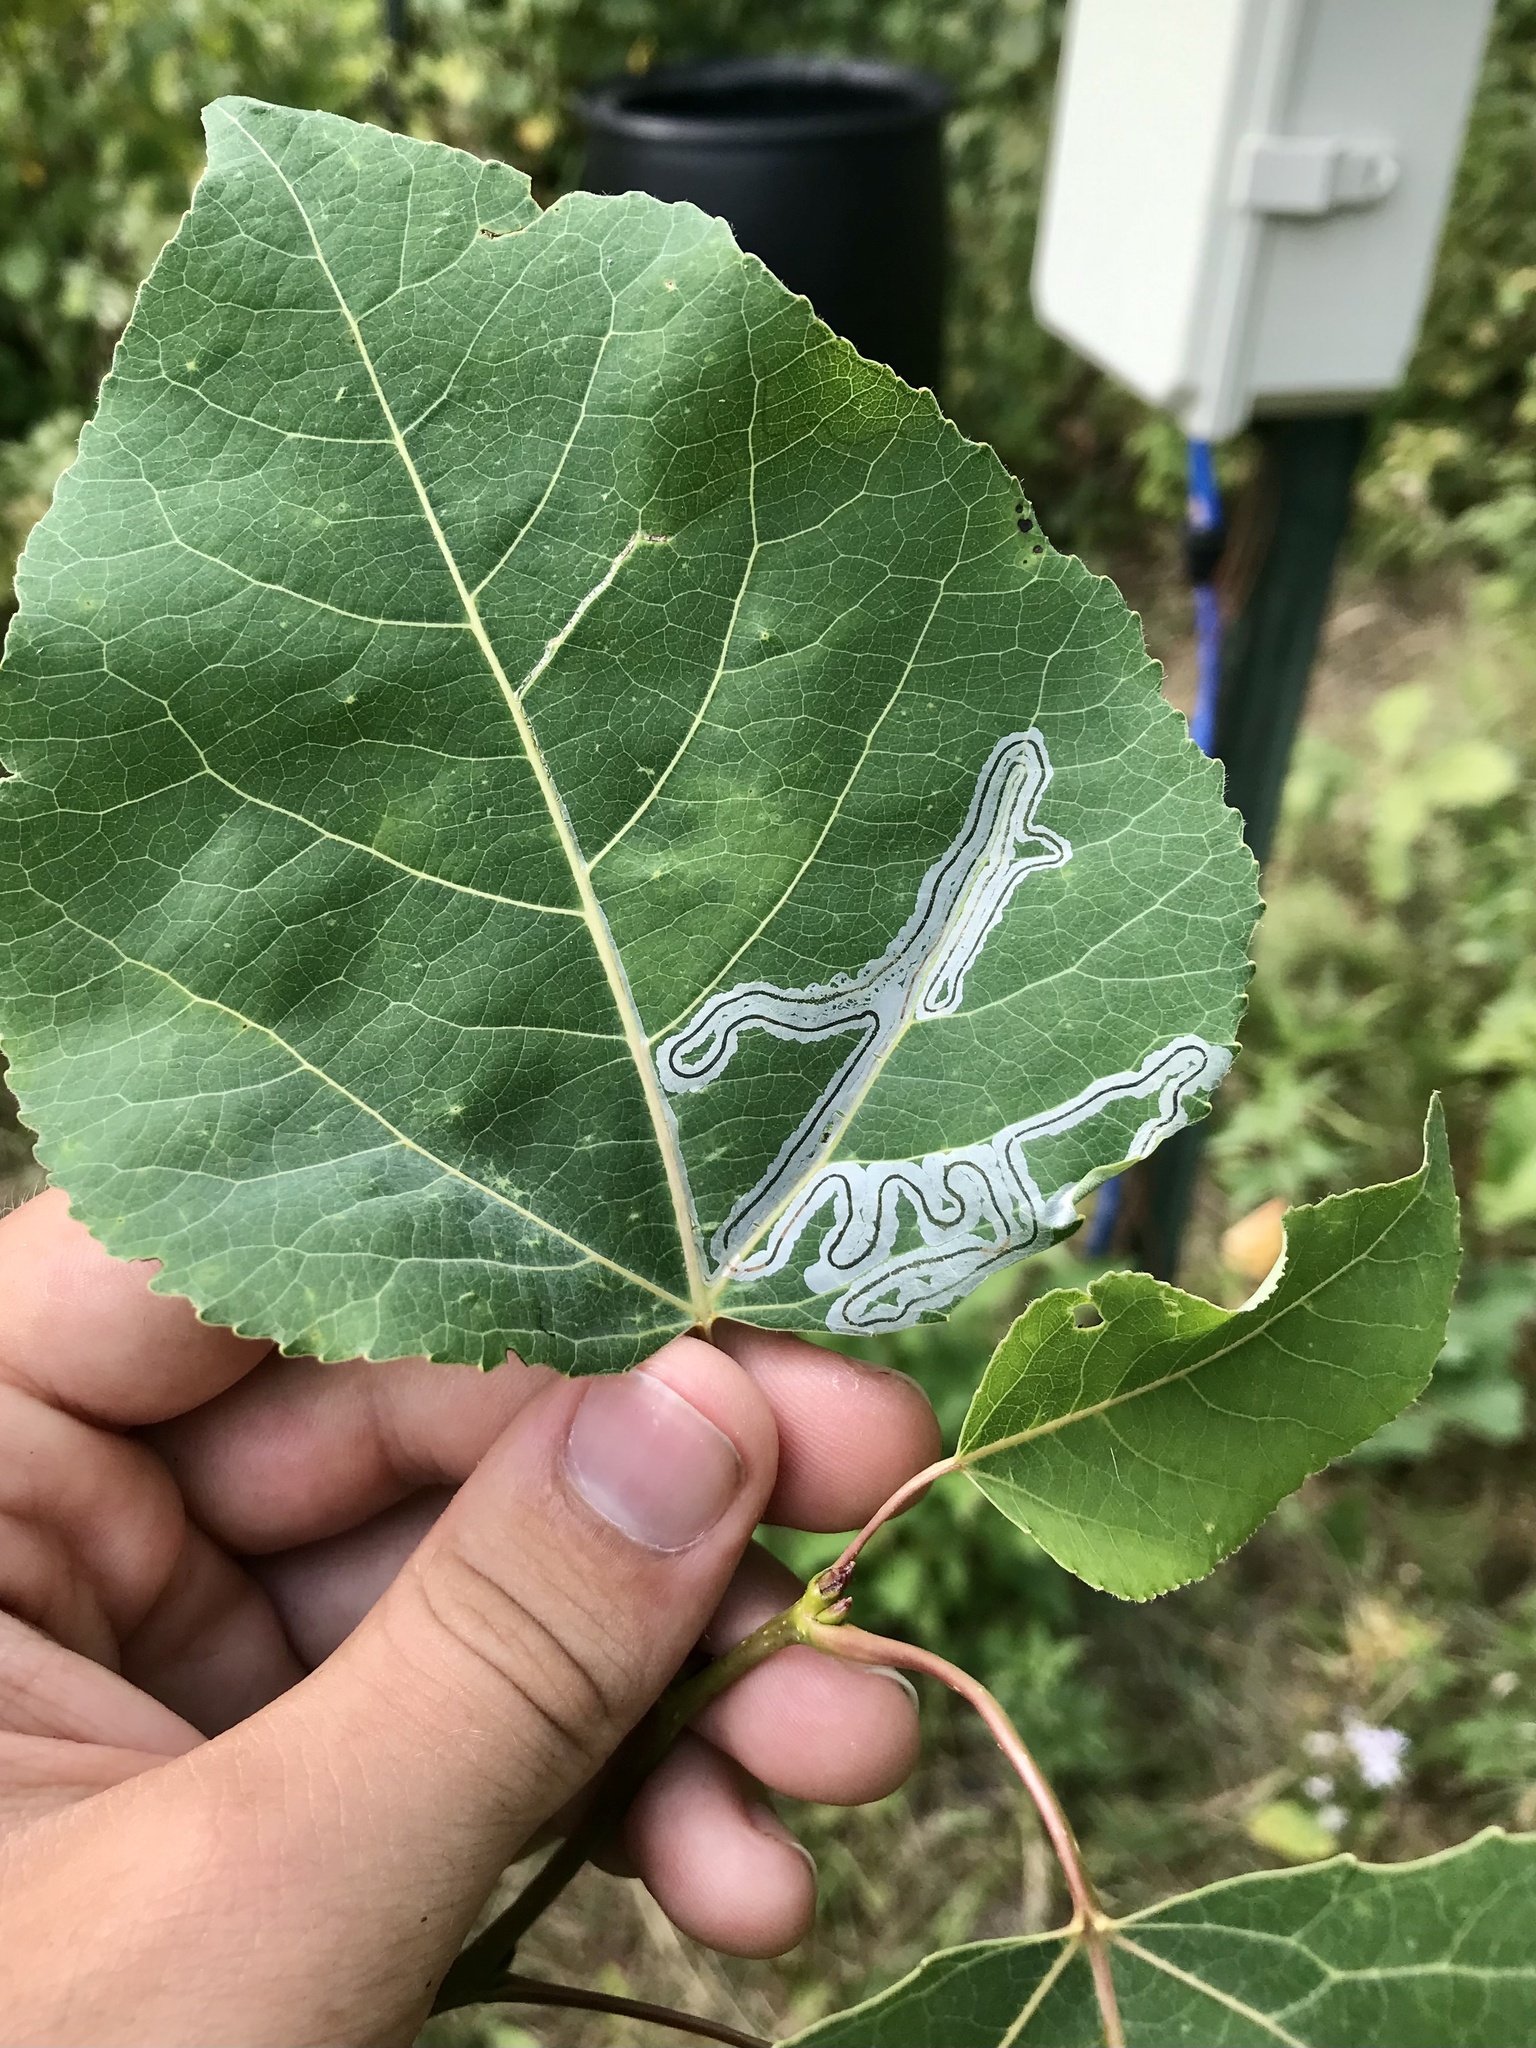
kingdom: Animalia
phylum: Arthropoda
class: Insecta
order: Lepidoptera
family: Gracillariidae
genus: Phyllocnistis
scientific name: Phyllocnistis populiella
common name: Aspen serpentine leafminer moth
